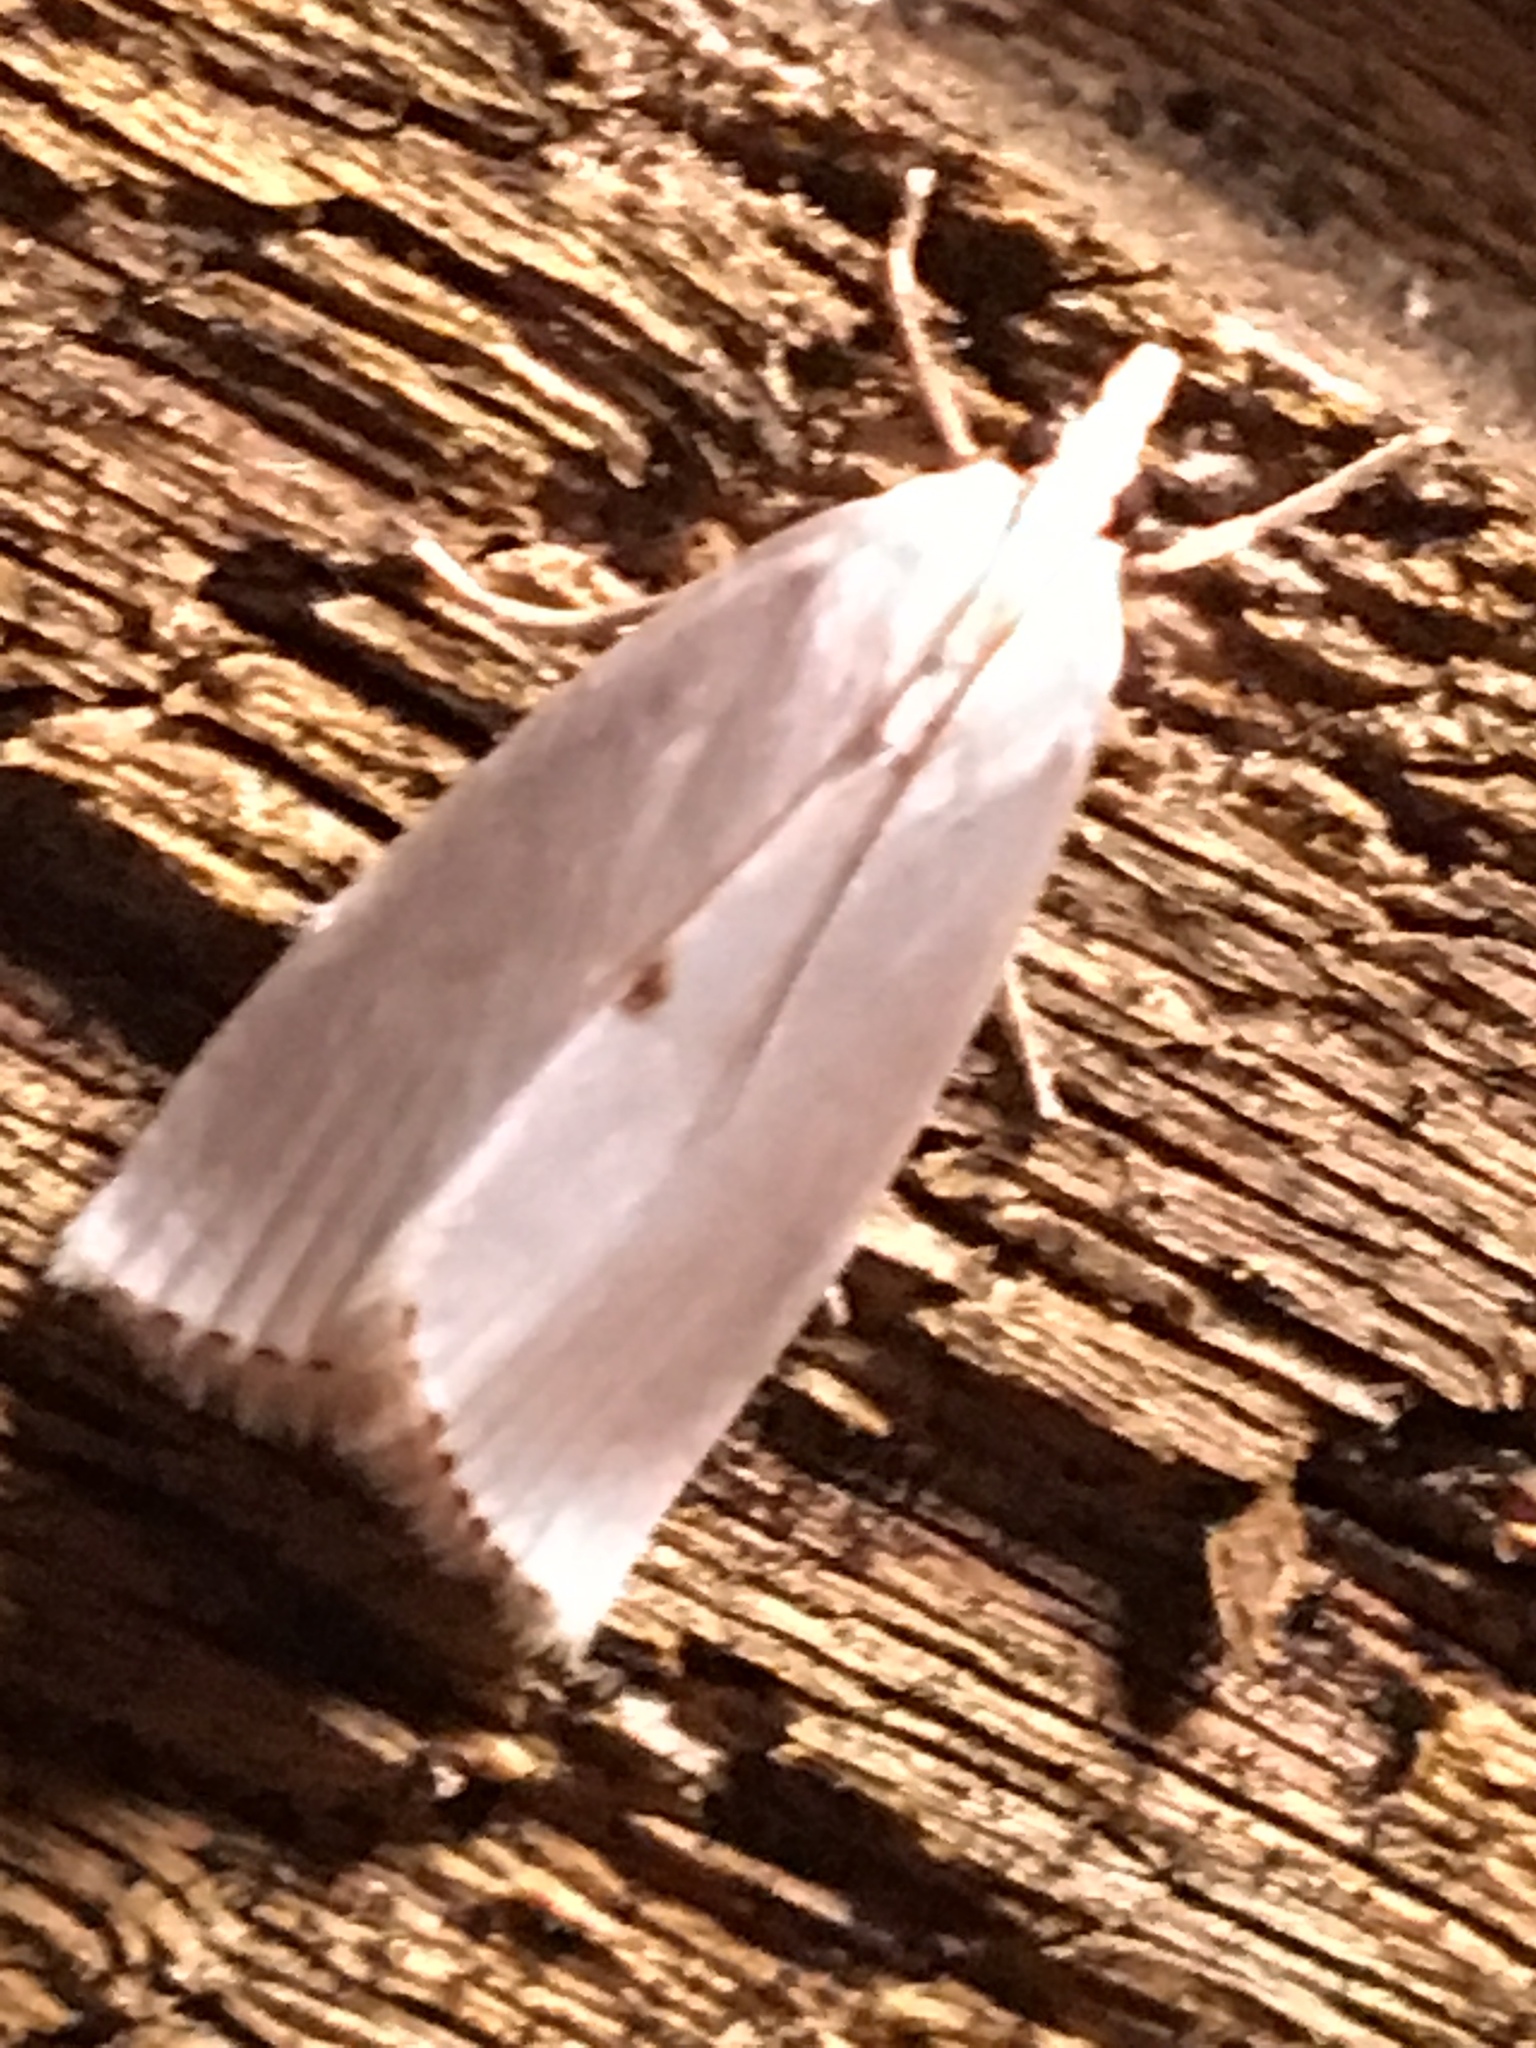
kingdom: Animalia
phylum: Arthropoda
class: Insecta
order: Lepidoptera
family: Crambidae
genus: Argyria
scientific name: Argyria nivalis
